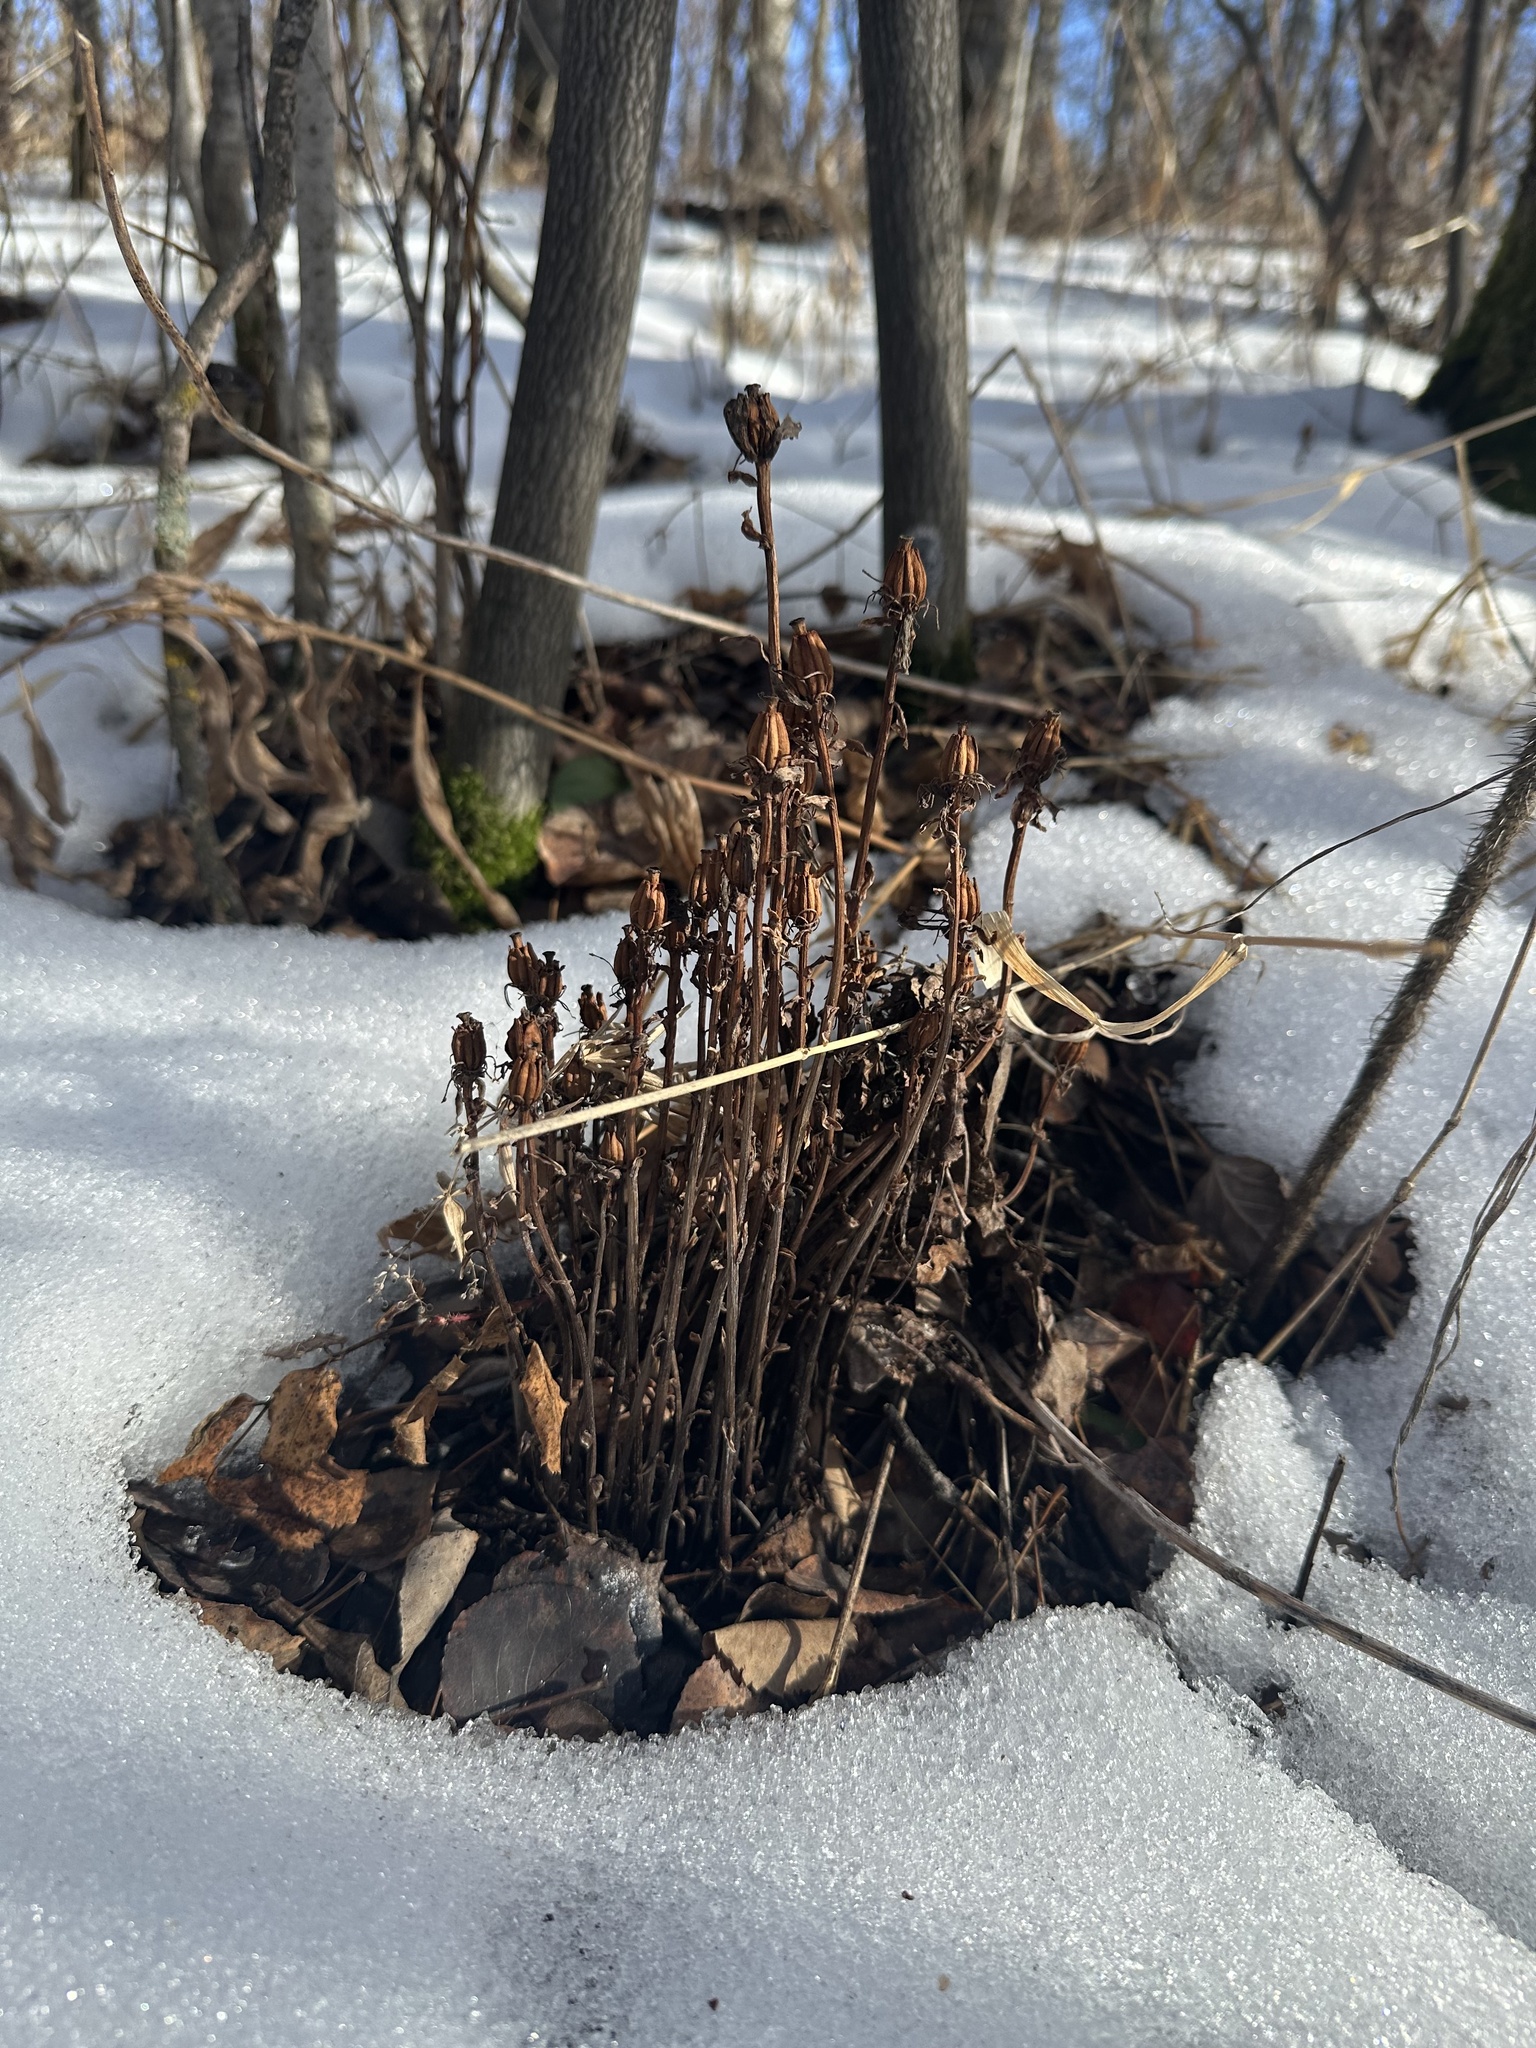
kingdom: Plantae
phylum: Tracheophyta
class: Magnoliopsida
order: Ericales
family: Ericaceae
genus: Monotropa
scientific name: Monotropa uniflora
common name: Convulsion root
